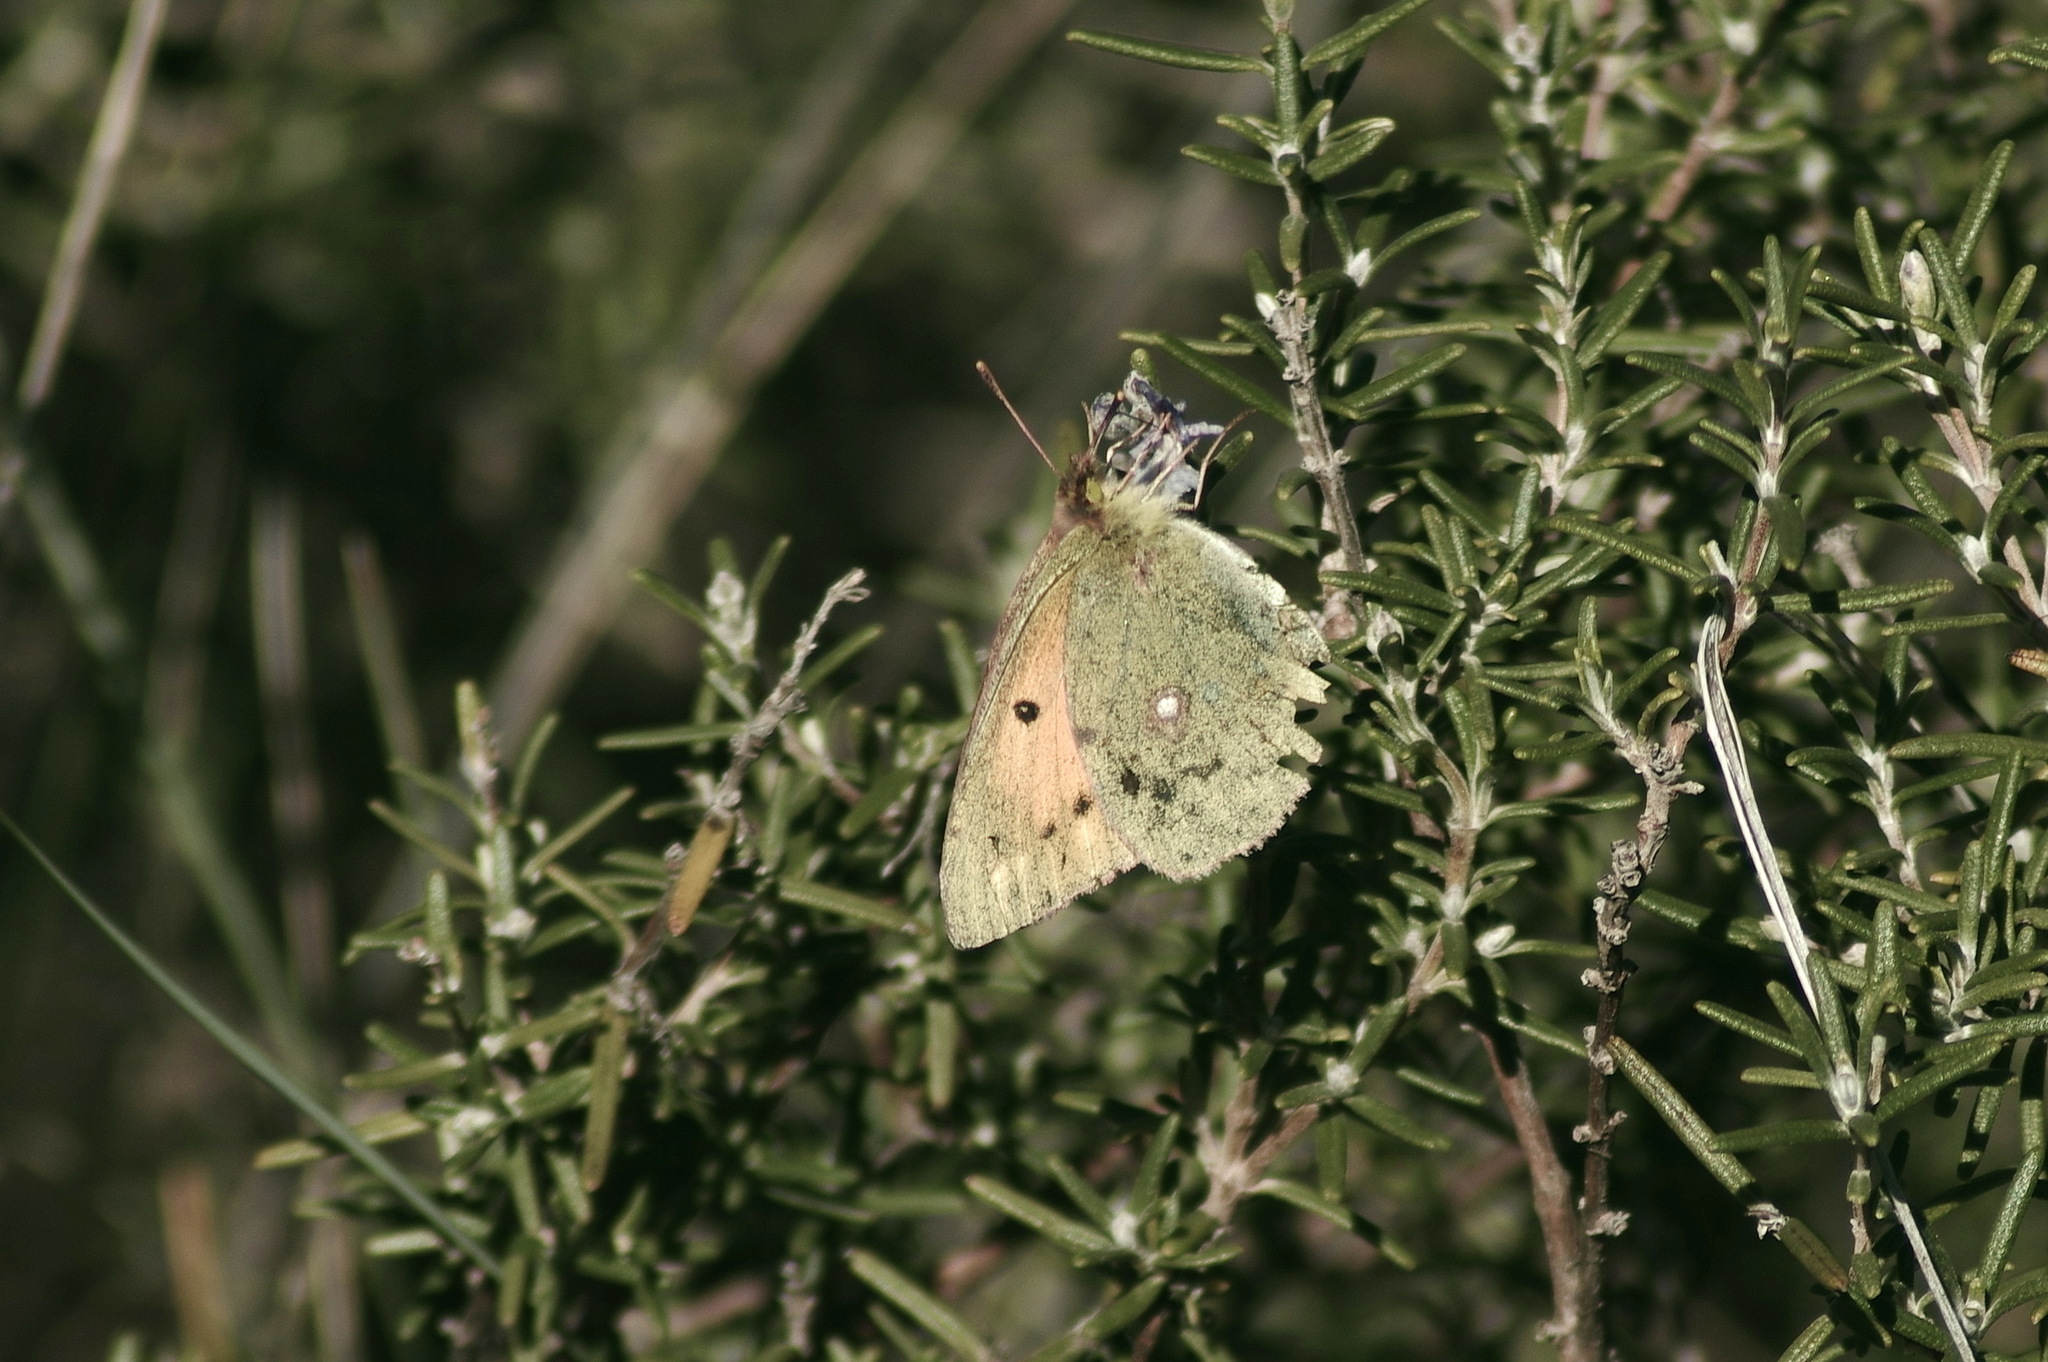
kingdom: Animalia
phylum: Arthropoda
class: Insecta
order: Lepidoptera
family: Pieridae
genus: Colias
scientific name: Colias croceus
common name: Clouded yellow
